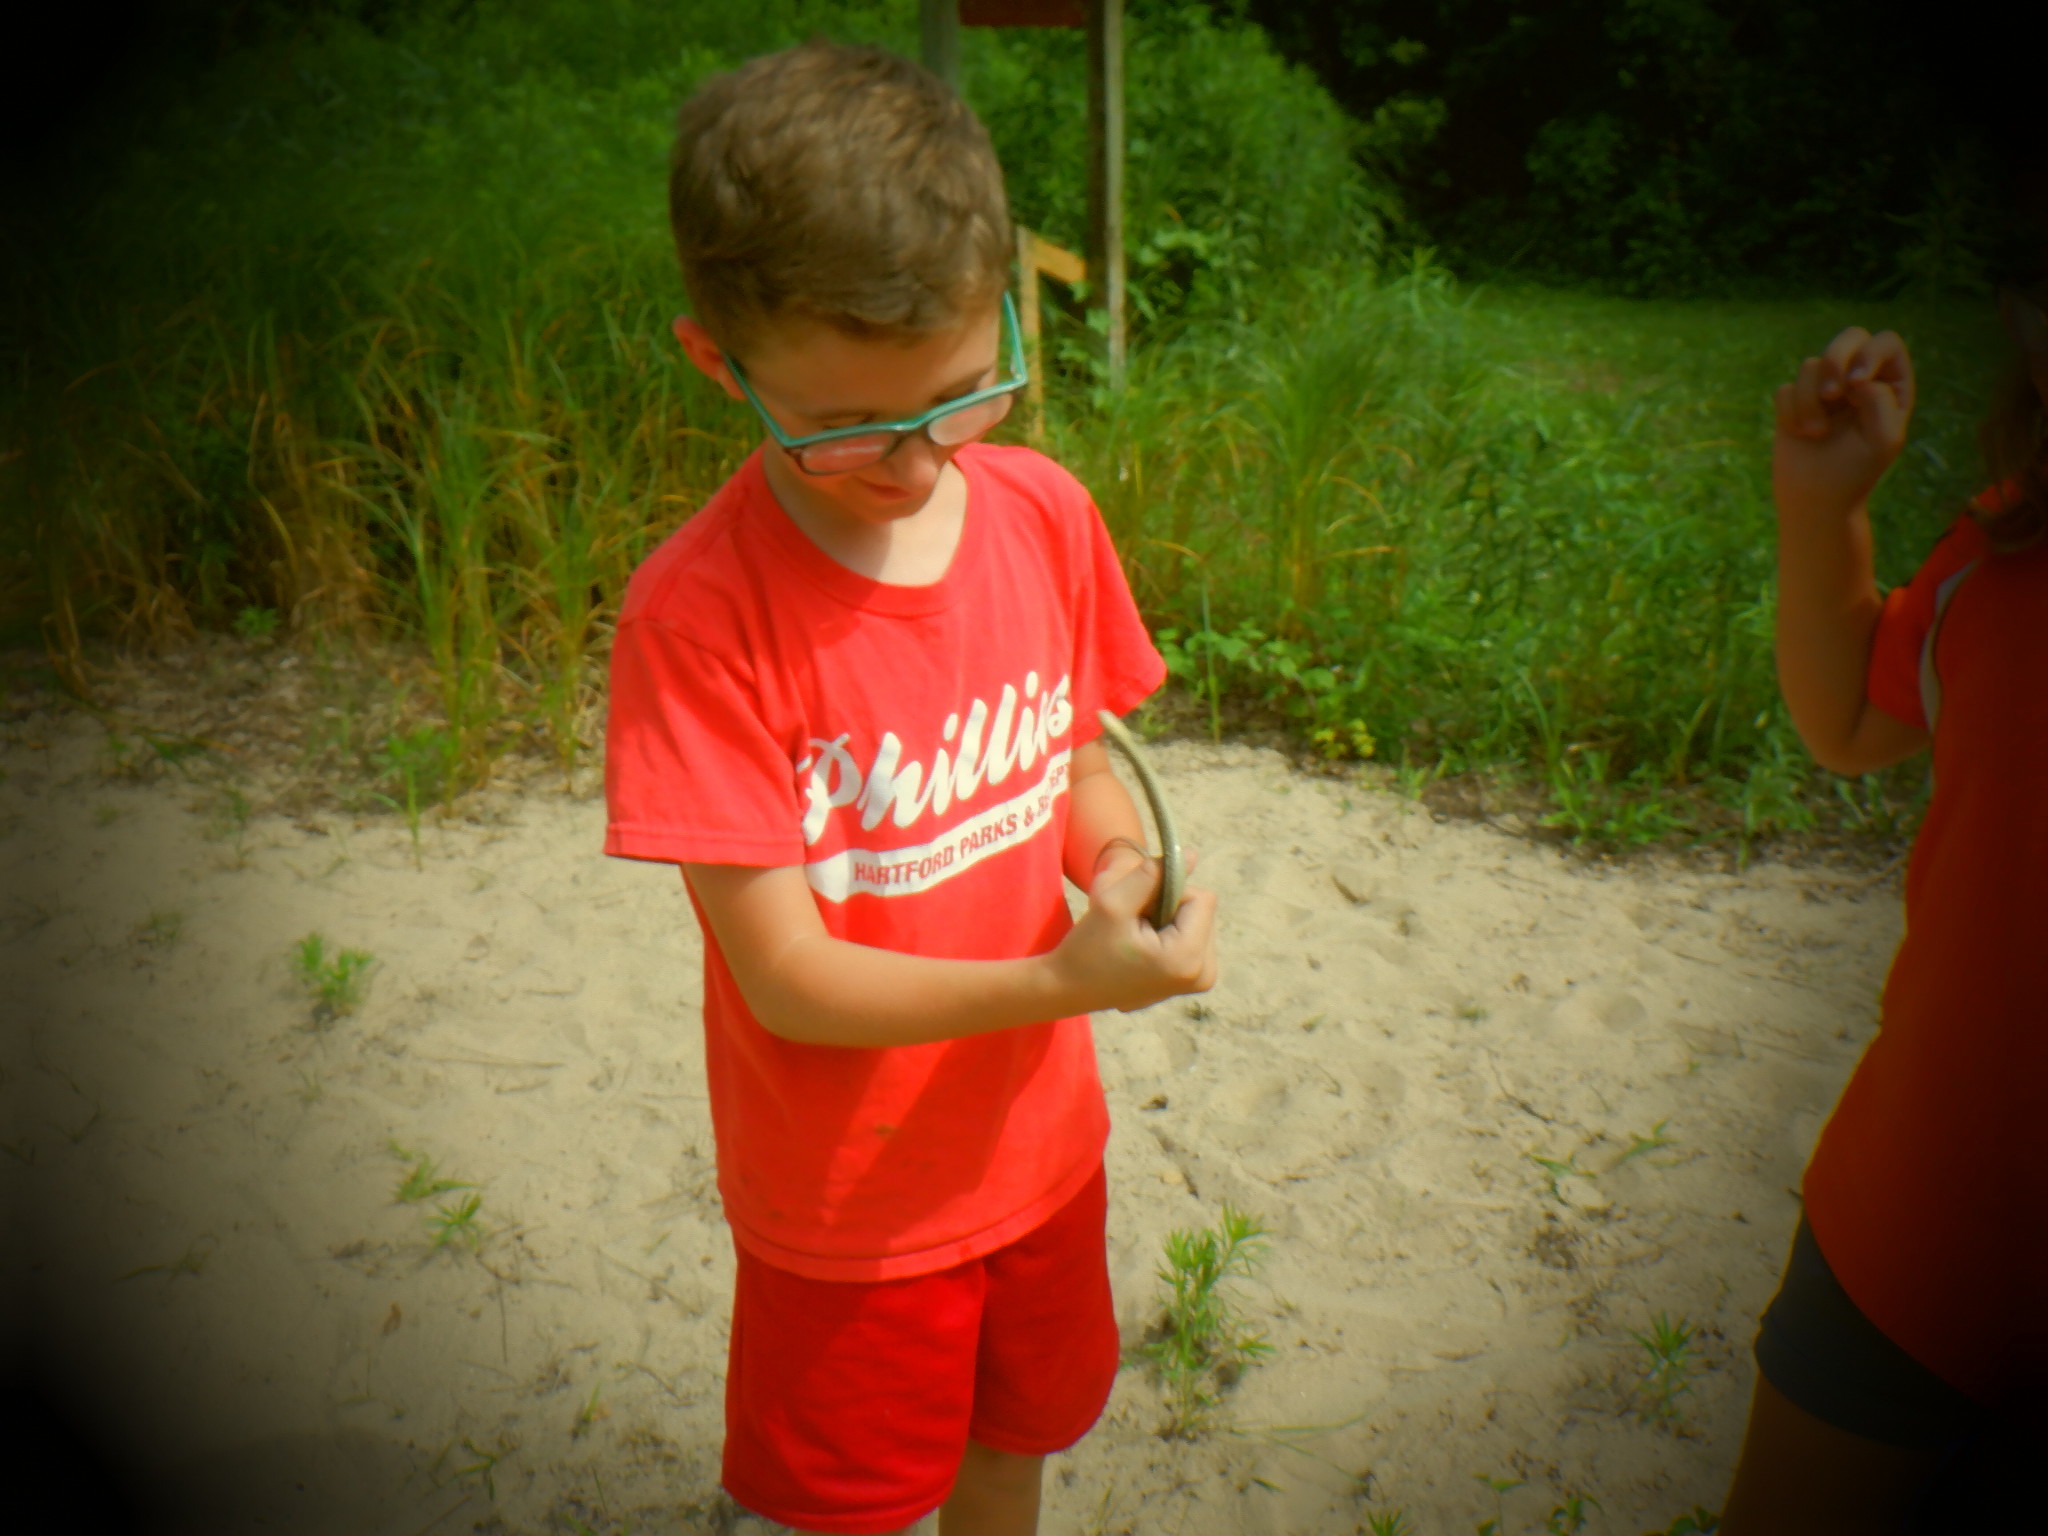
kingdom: Animalia
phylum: Chordata
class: Squamata
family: Colubridae
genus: Thamnophis
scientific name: Thamnophis sirtalis
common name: Common garter snake
